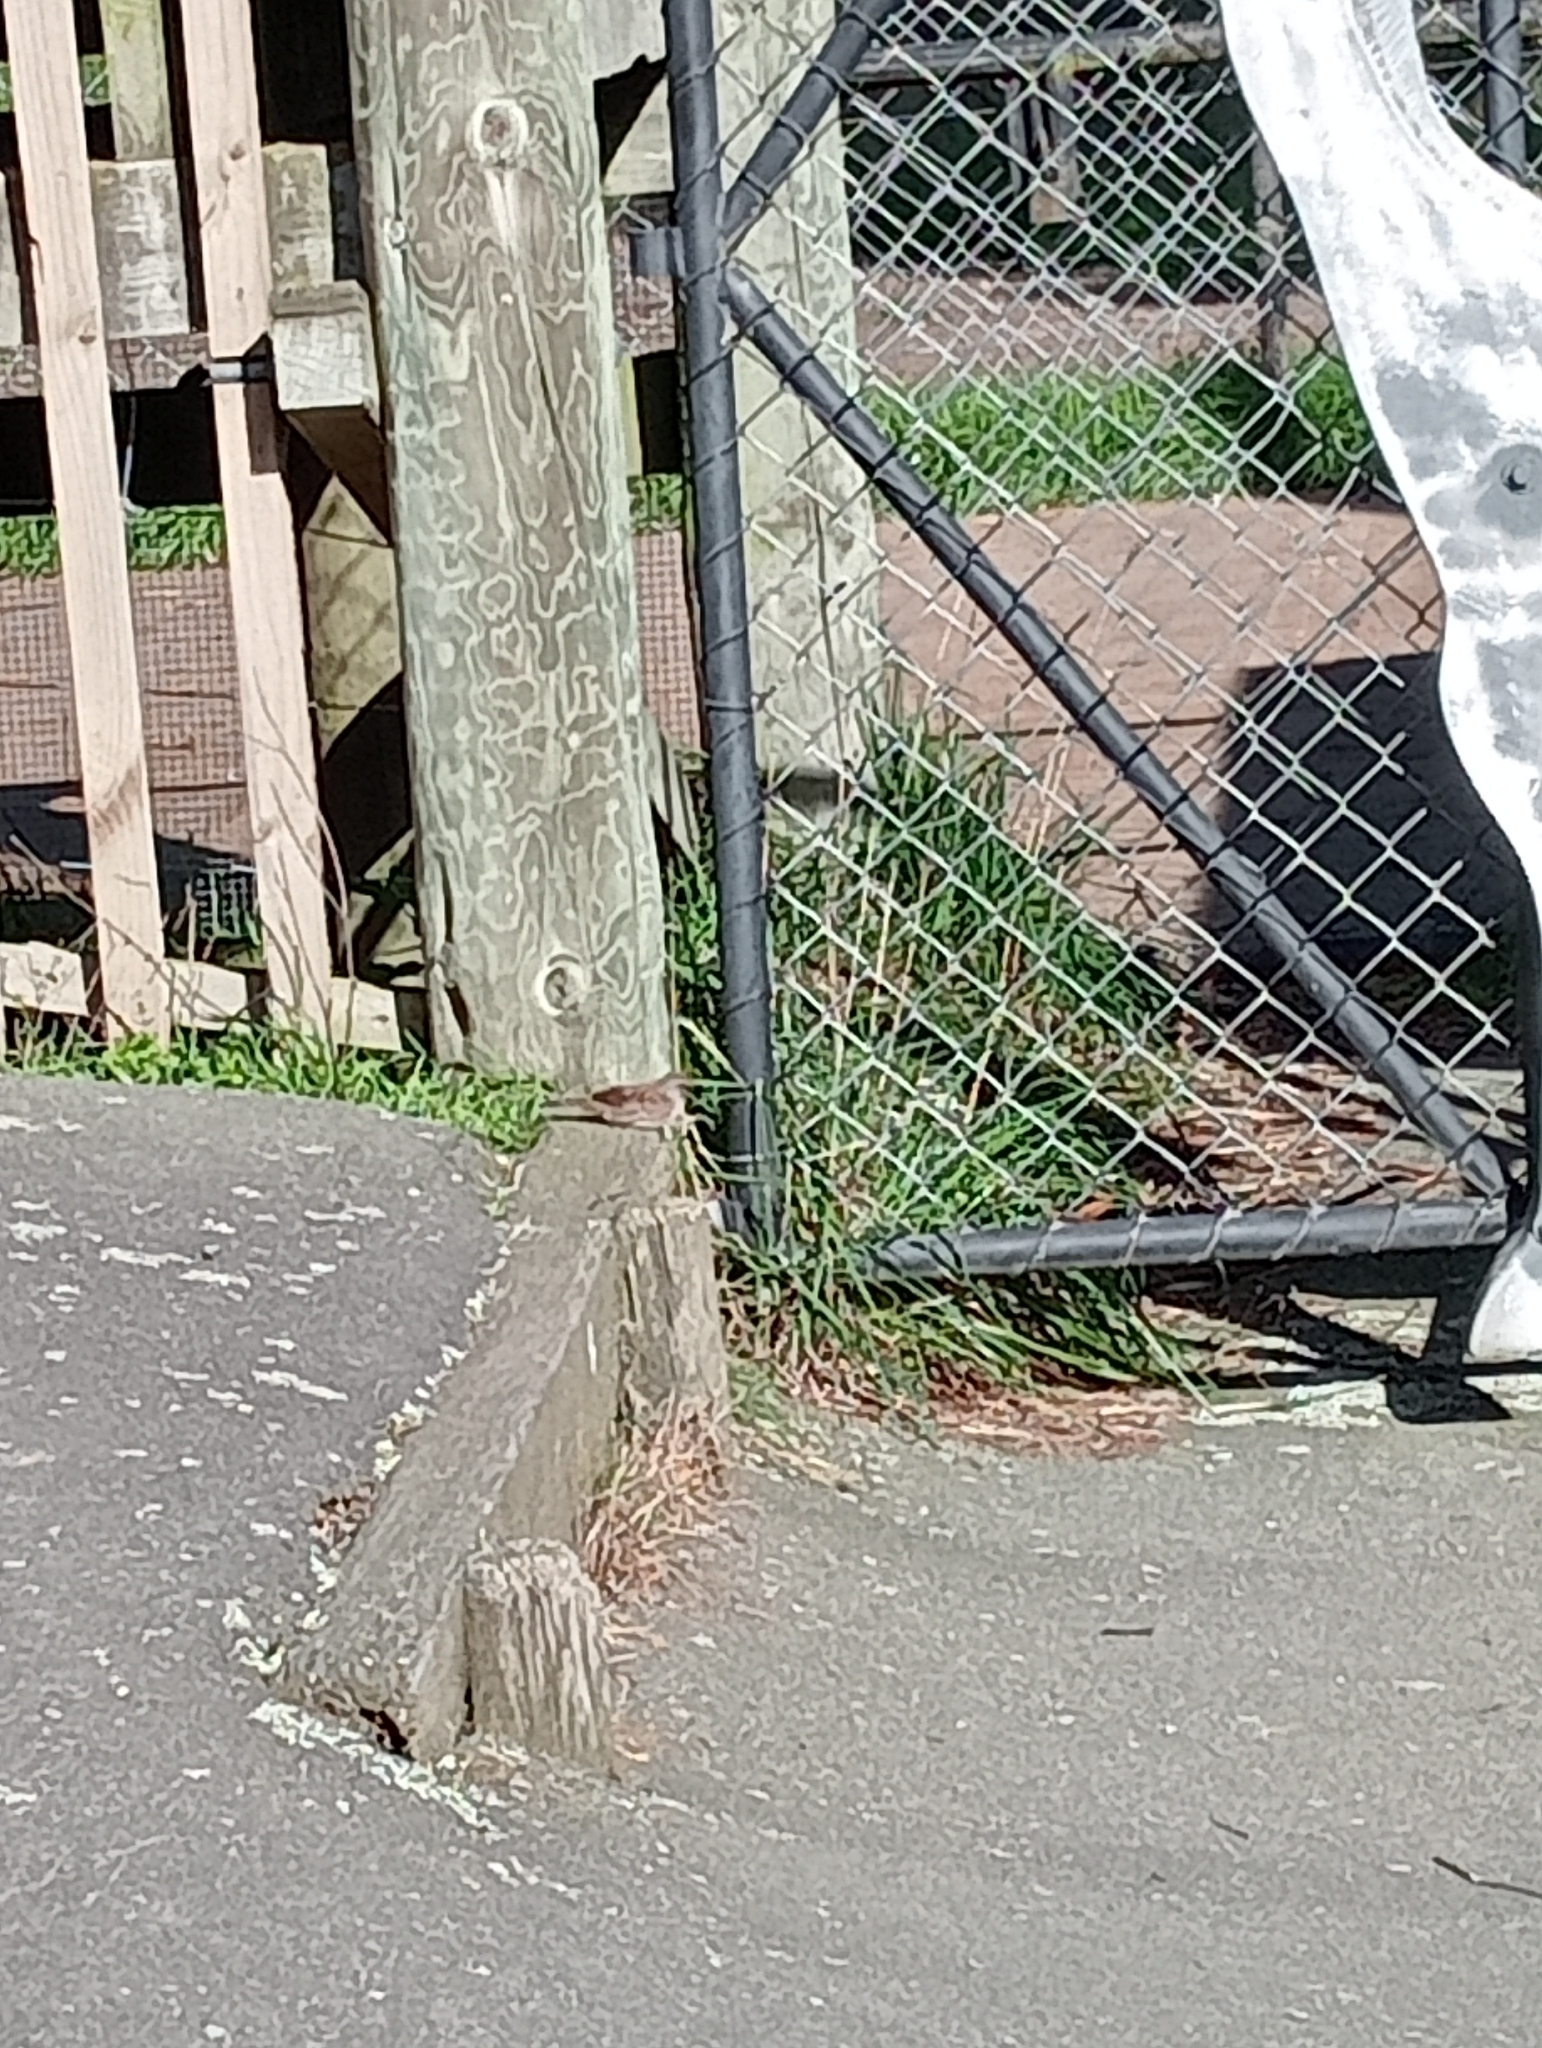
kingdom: Animalia
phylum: Chordata
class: Aves
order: Passeriformes
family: Prunellidae
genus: Prunella
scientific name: Prunella modularis
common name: Dunnock
